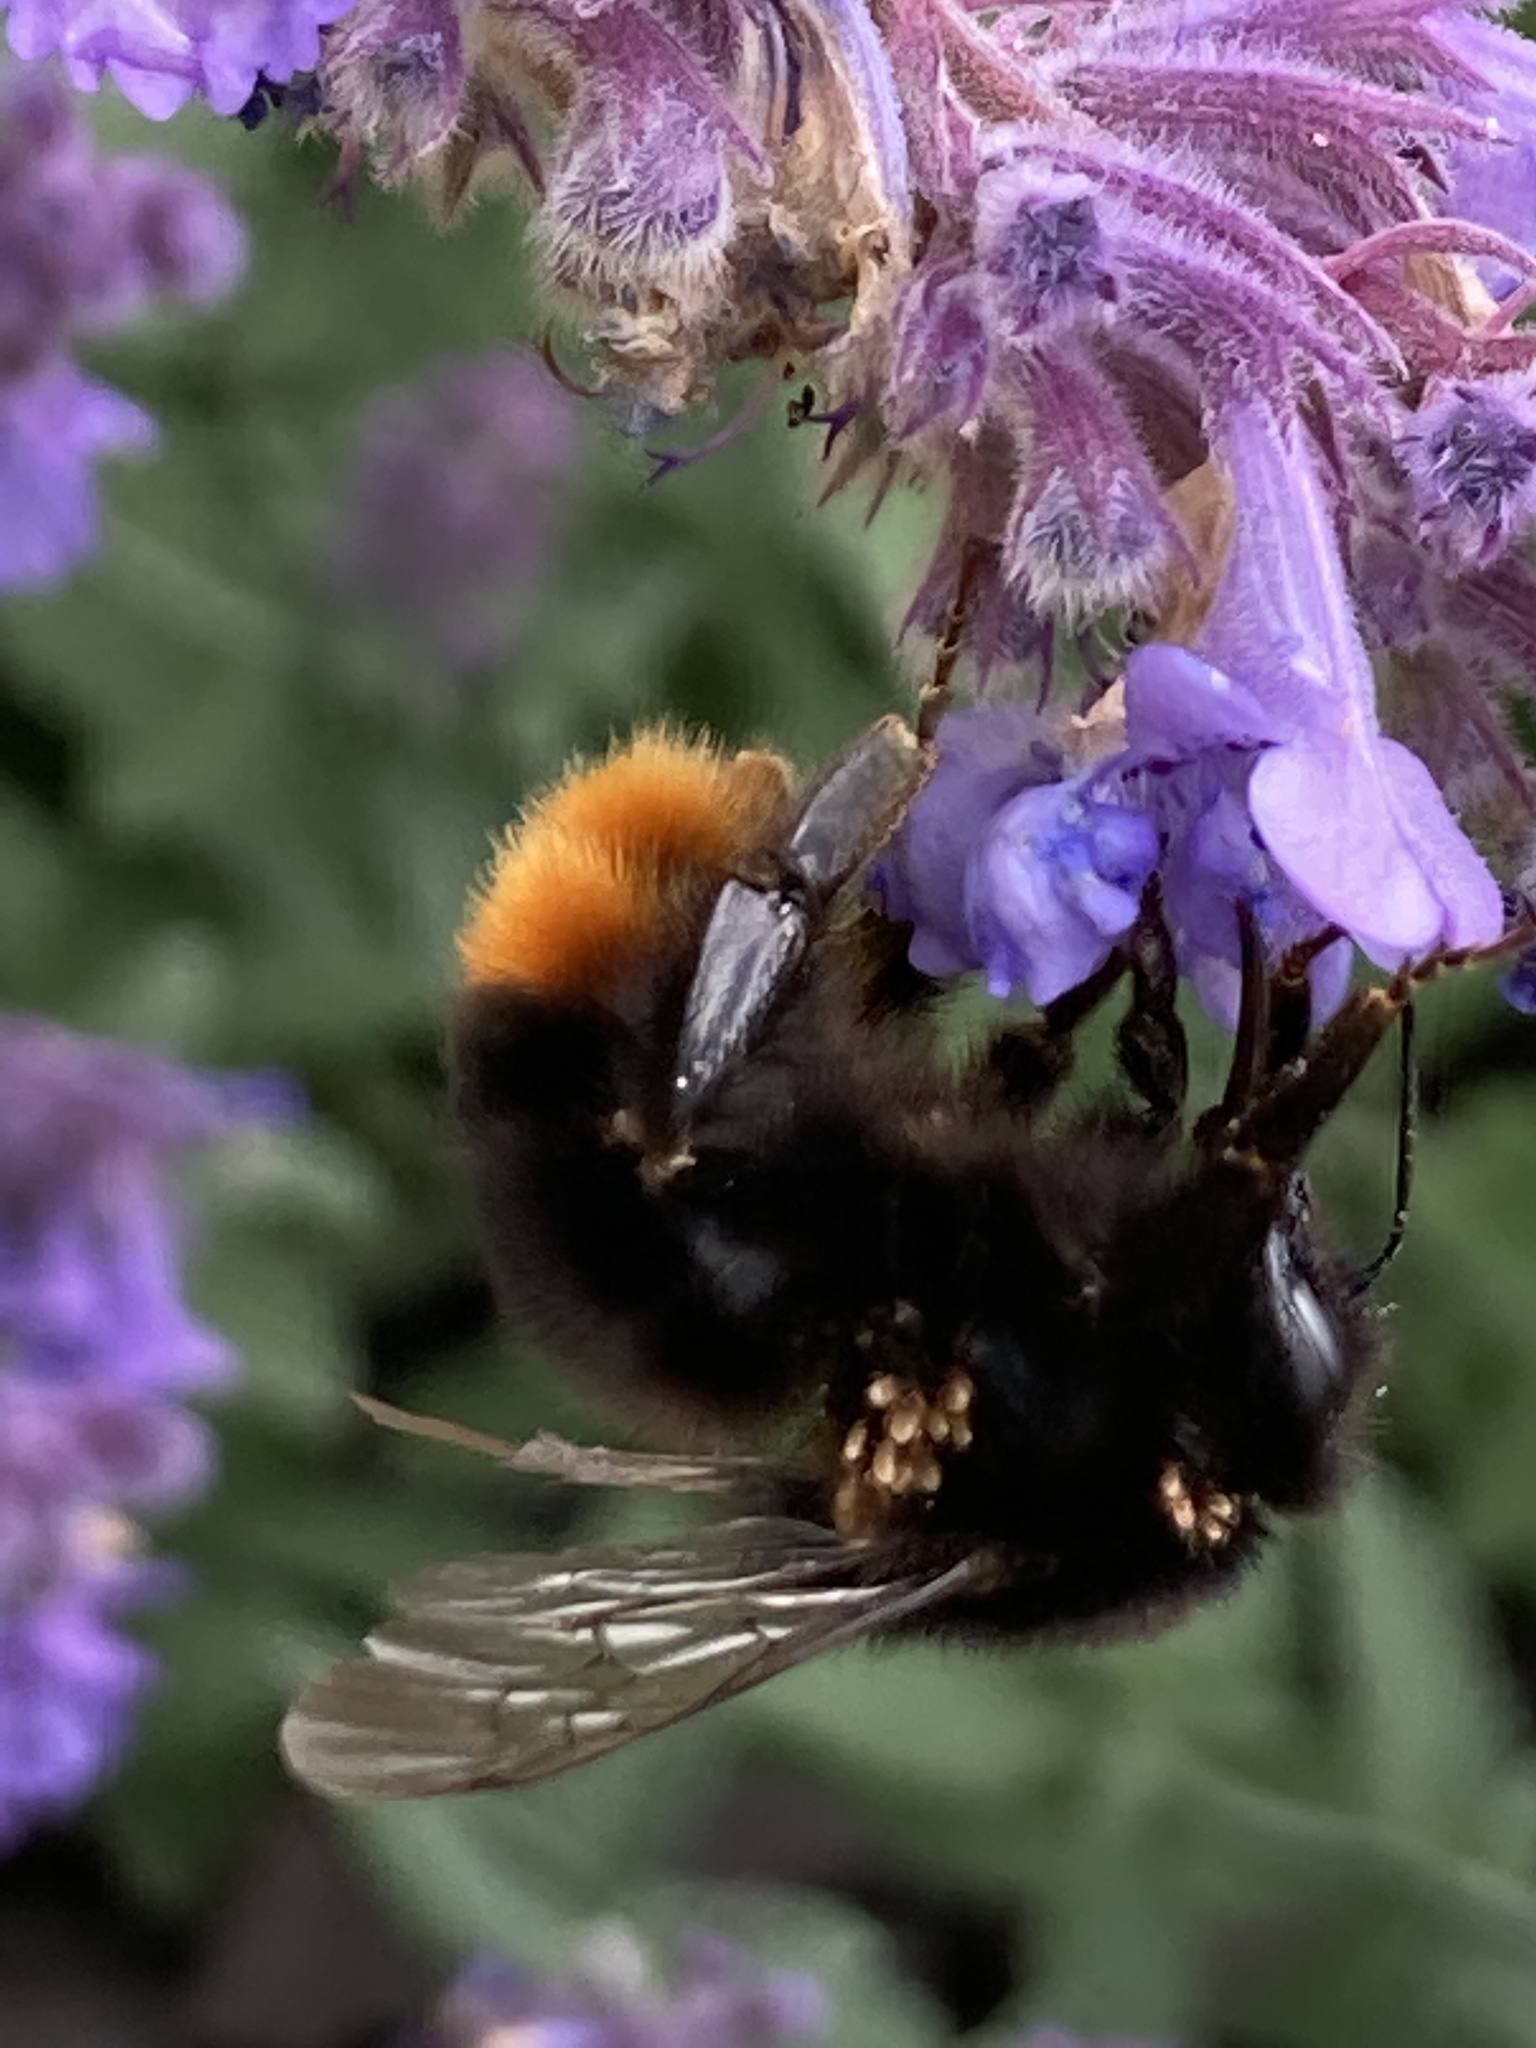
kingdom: Animalia
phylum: Arthropoda
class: Insecta
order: Hymenoptera
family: Apidae
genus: Bombus
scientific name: Bombus lapidarius
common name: Large red-tailed humble-bee
